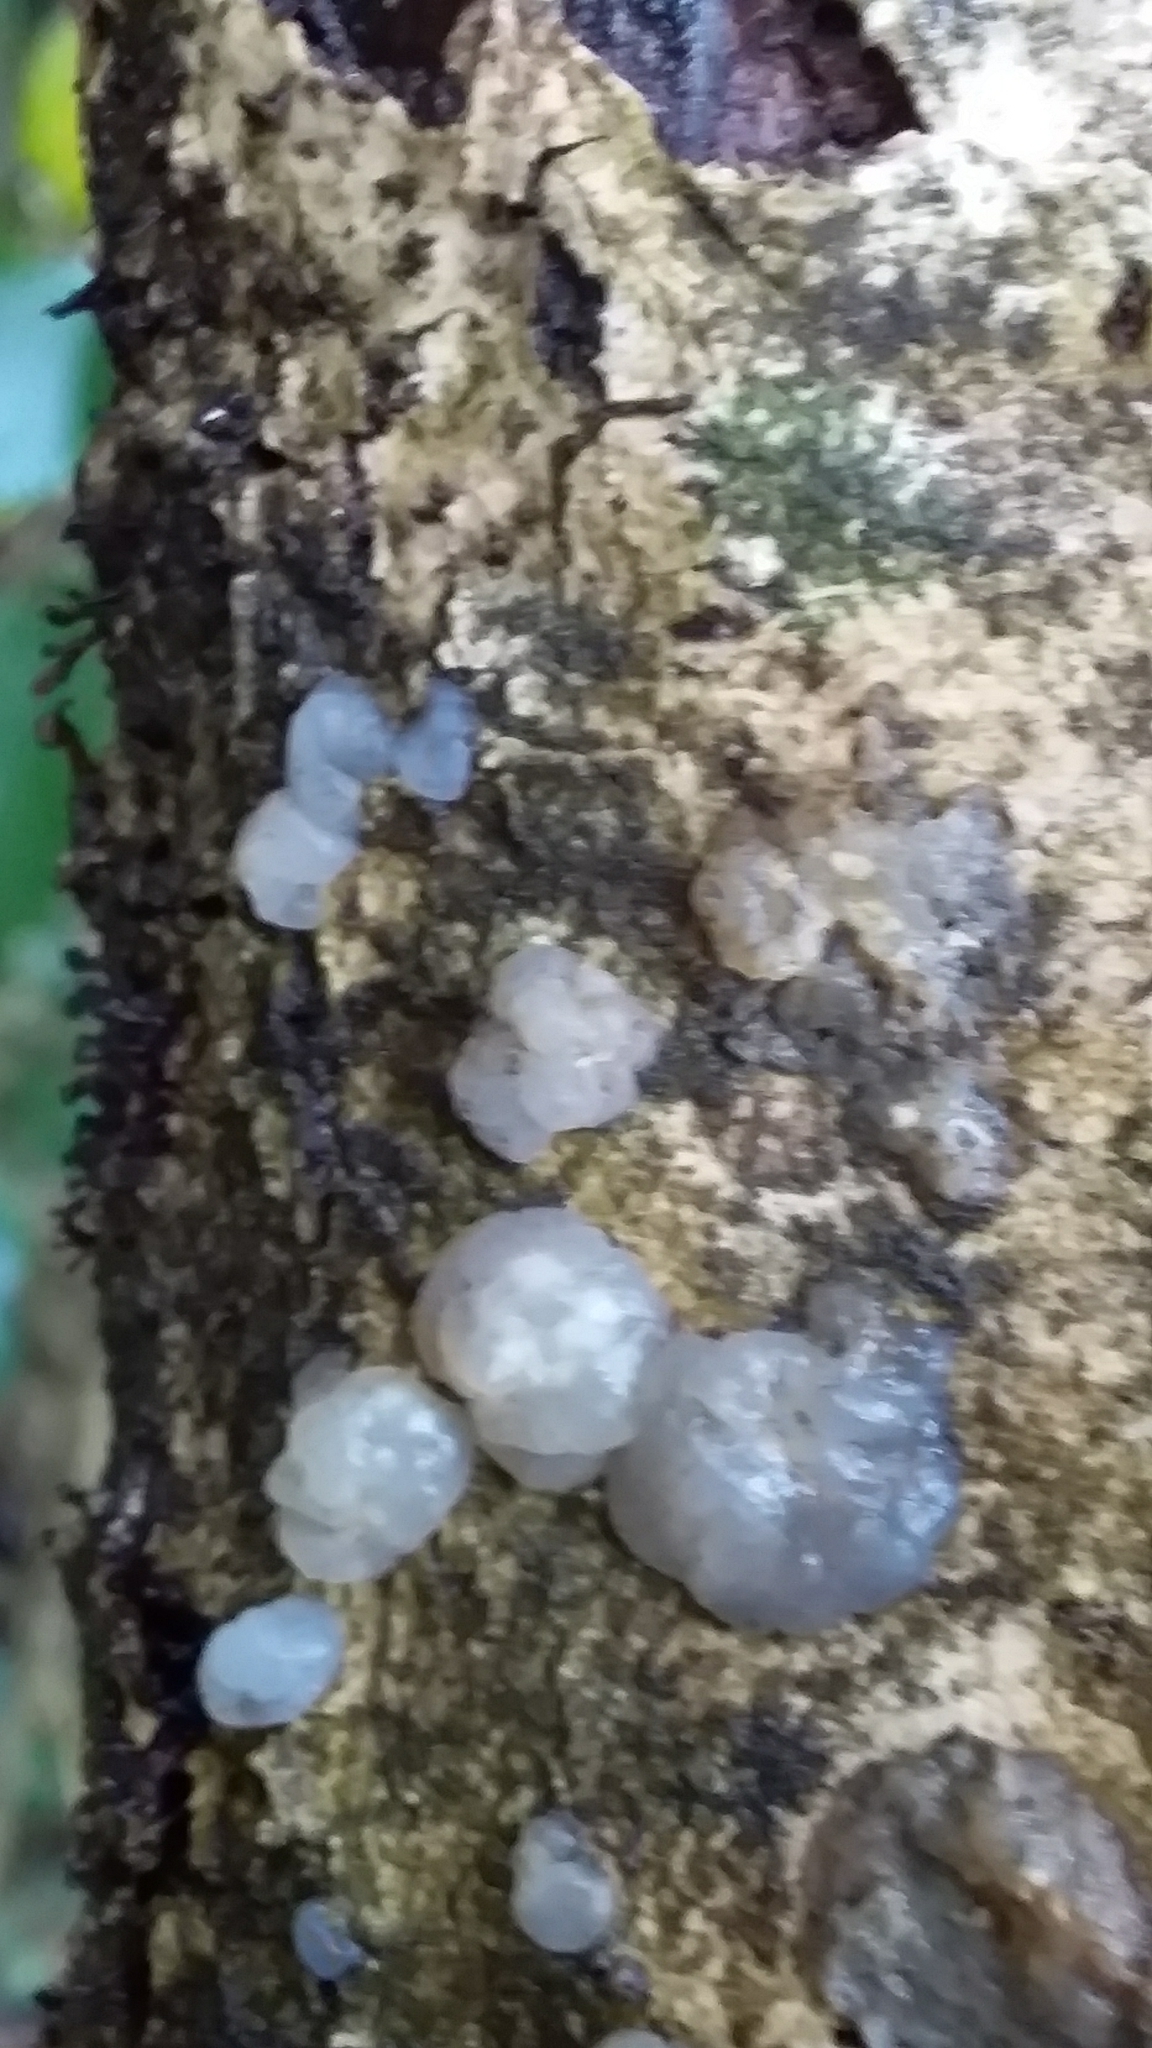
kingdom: Fungi
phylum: Basidiomycota
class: Agaricomycetes
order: Auriculariales
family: Hyaloriaceae
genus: Myxarium
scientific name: Myxarium nucleatum
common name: Crystal brain fungus
